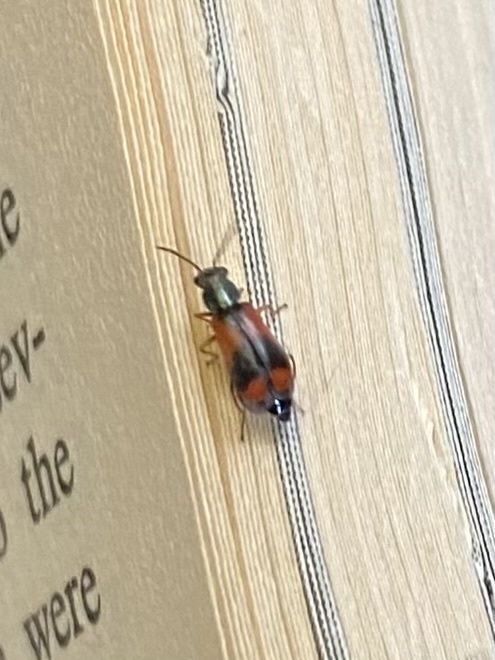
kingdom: Animalia
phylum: Arthropoda
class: Insecta
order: Coleoptera
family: Melyridae
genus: Anthocomus
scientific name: Anthocomus equestris
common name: Black-banded soft-winged flower beetle
